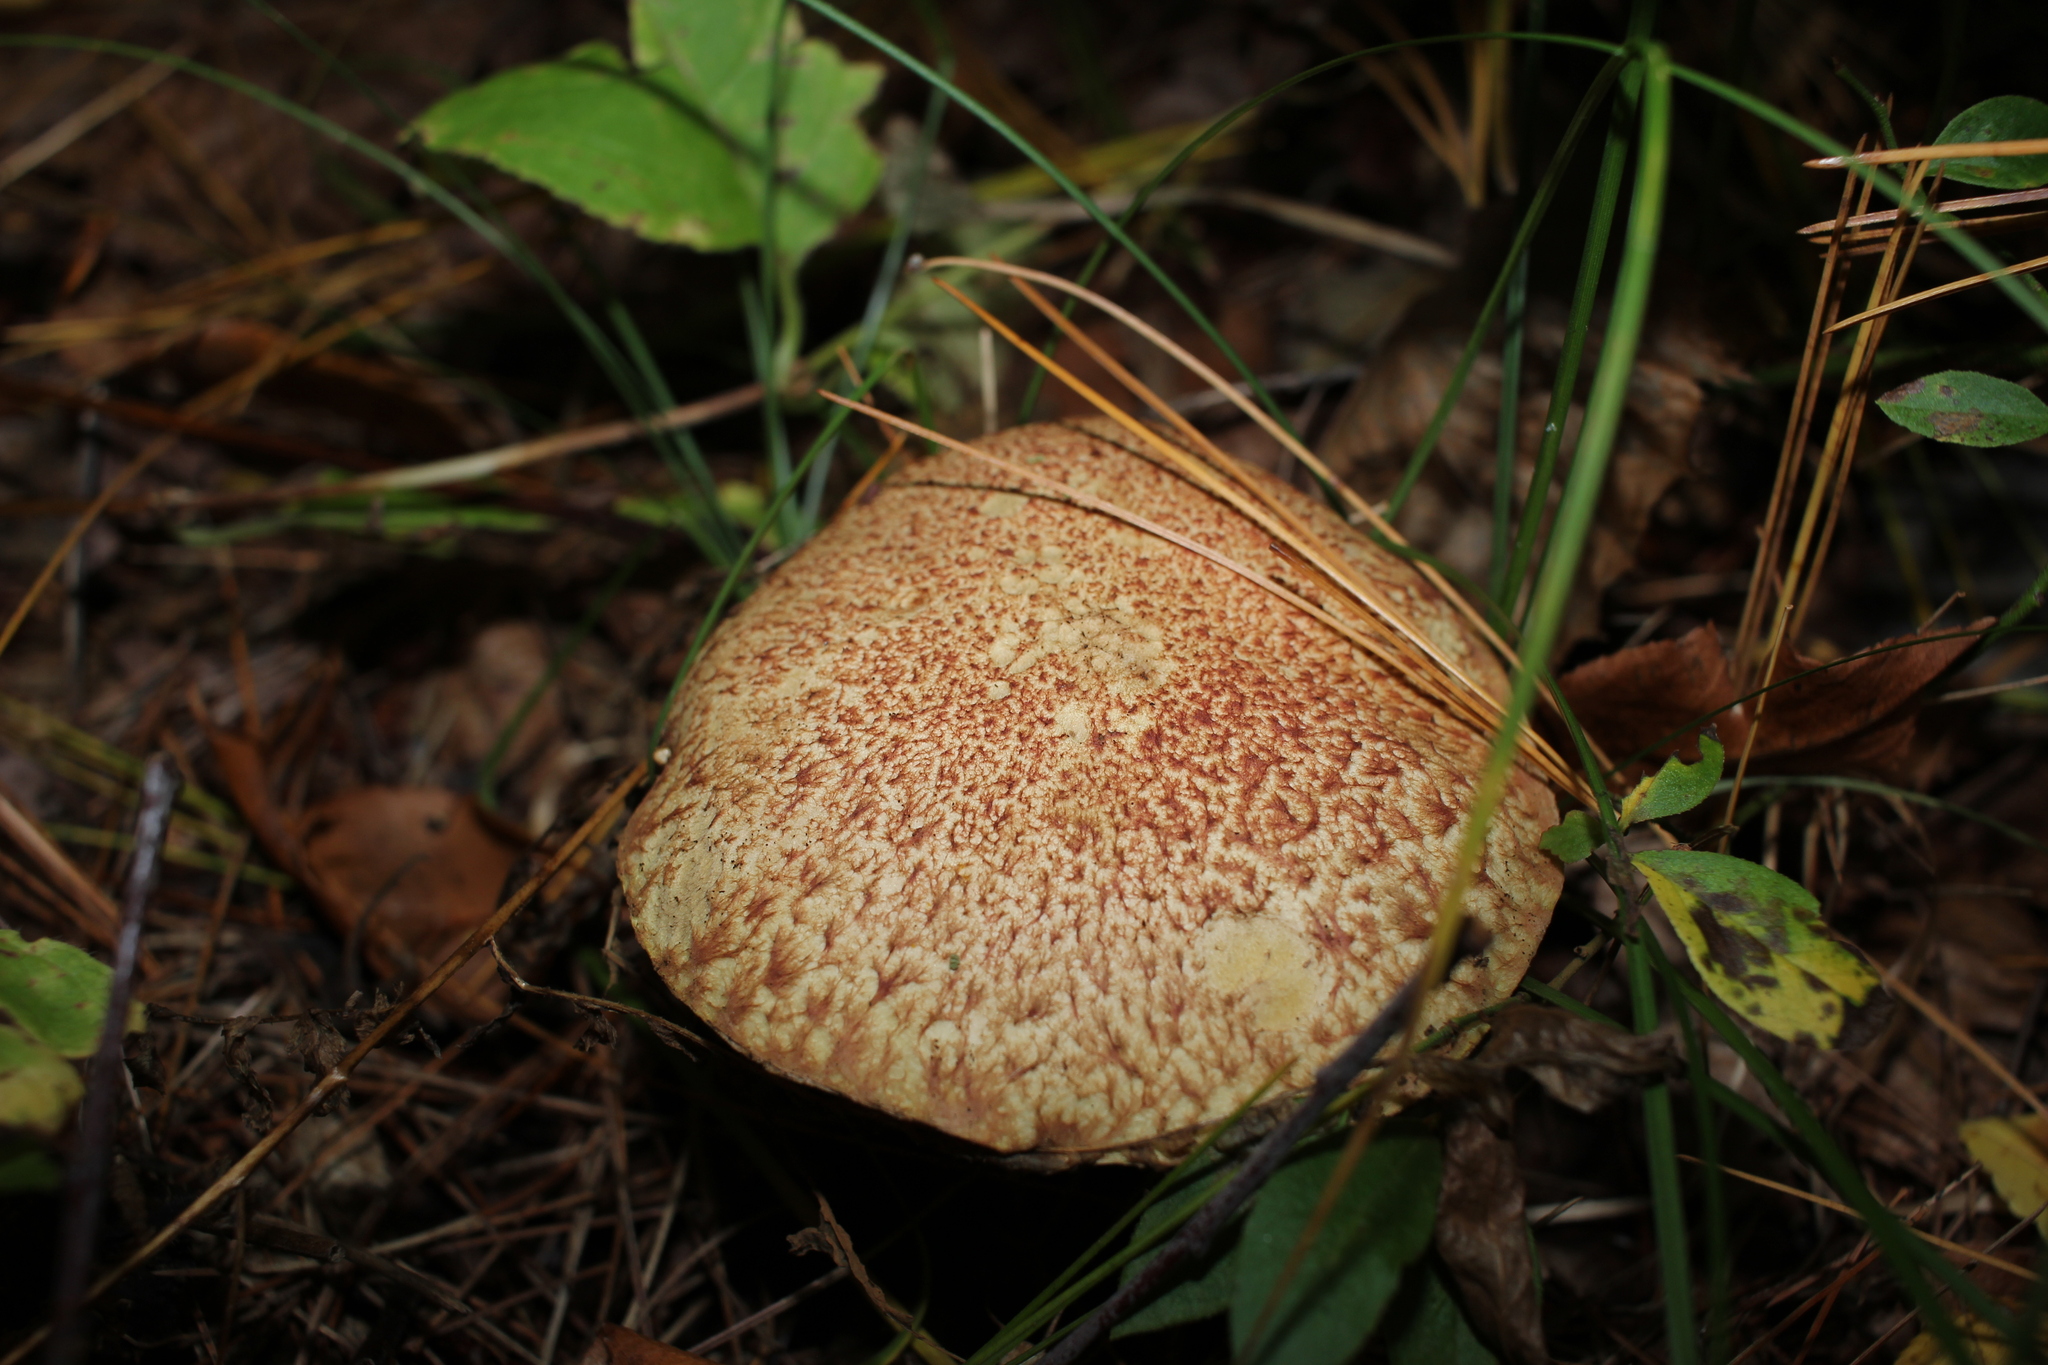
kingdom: Fungi
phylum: Basidiomycota
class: Agaricomycetes
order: Boletales
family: Suillaceae
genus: Suillus
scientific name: Suillus spraguei
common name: Painted suillus
